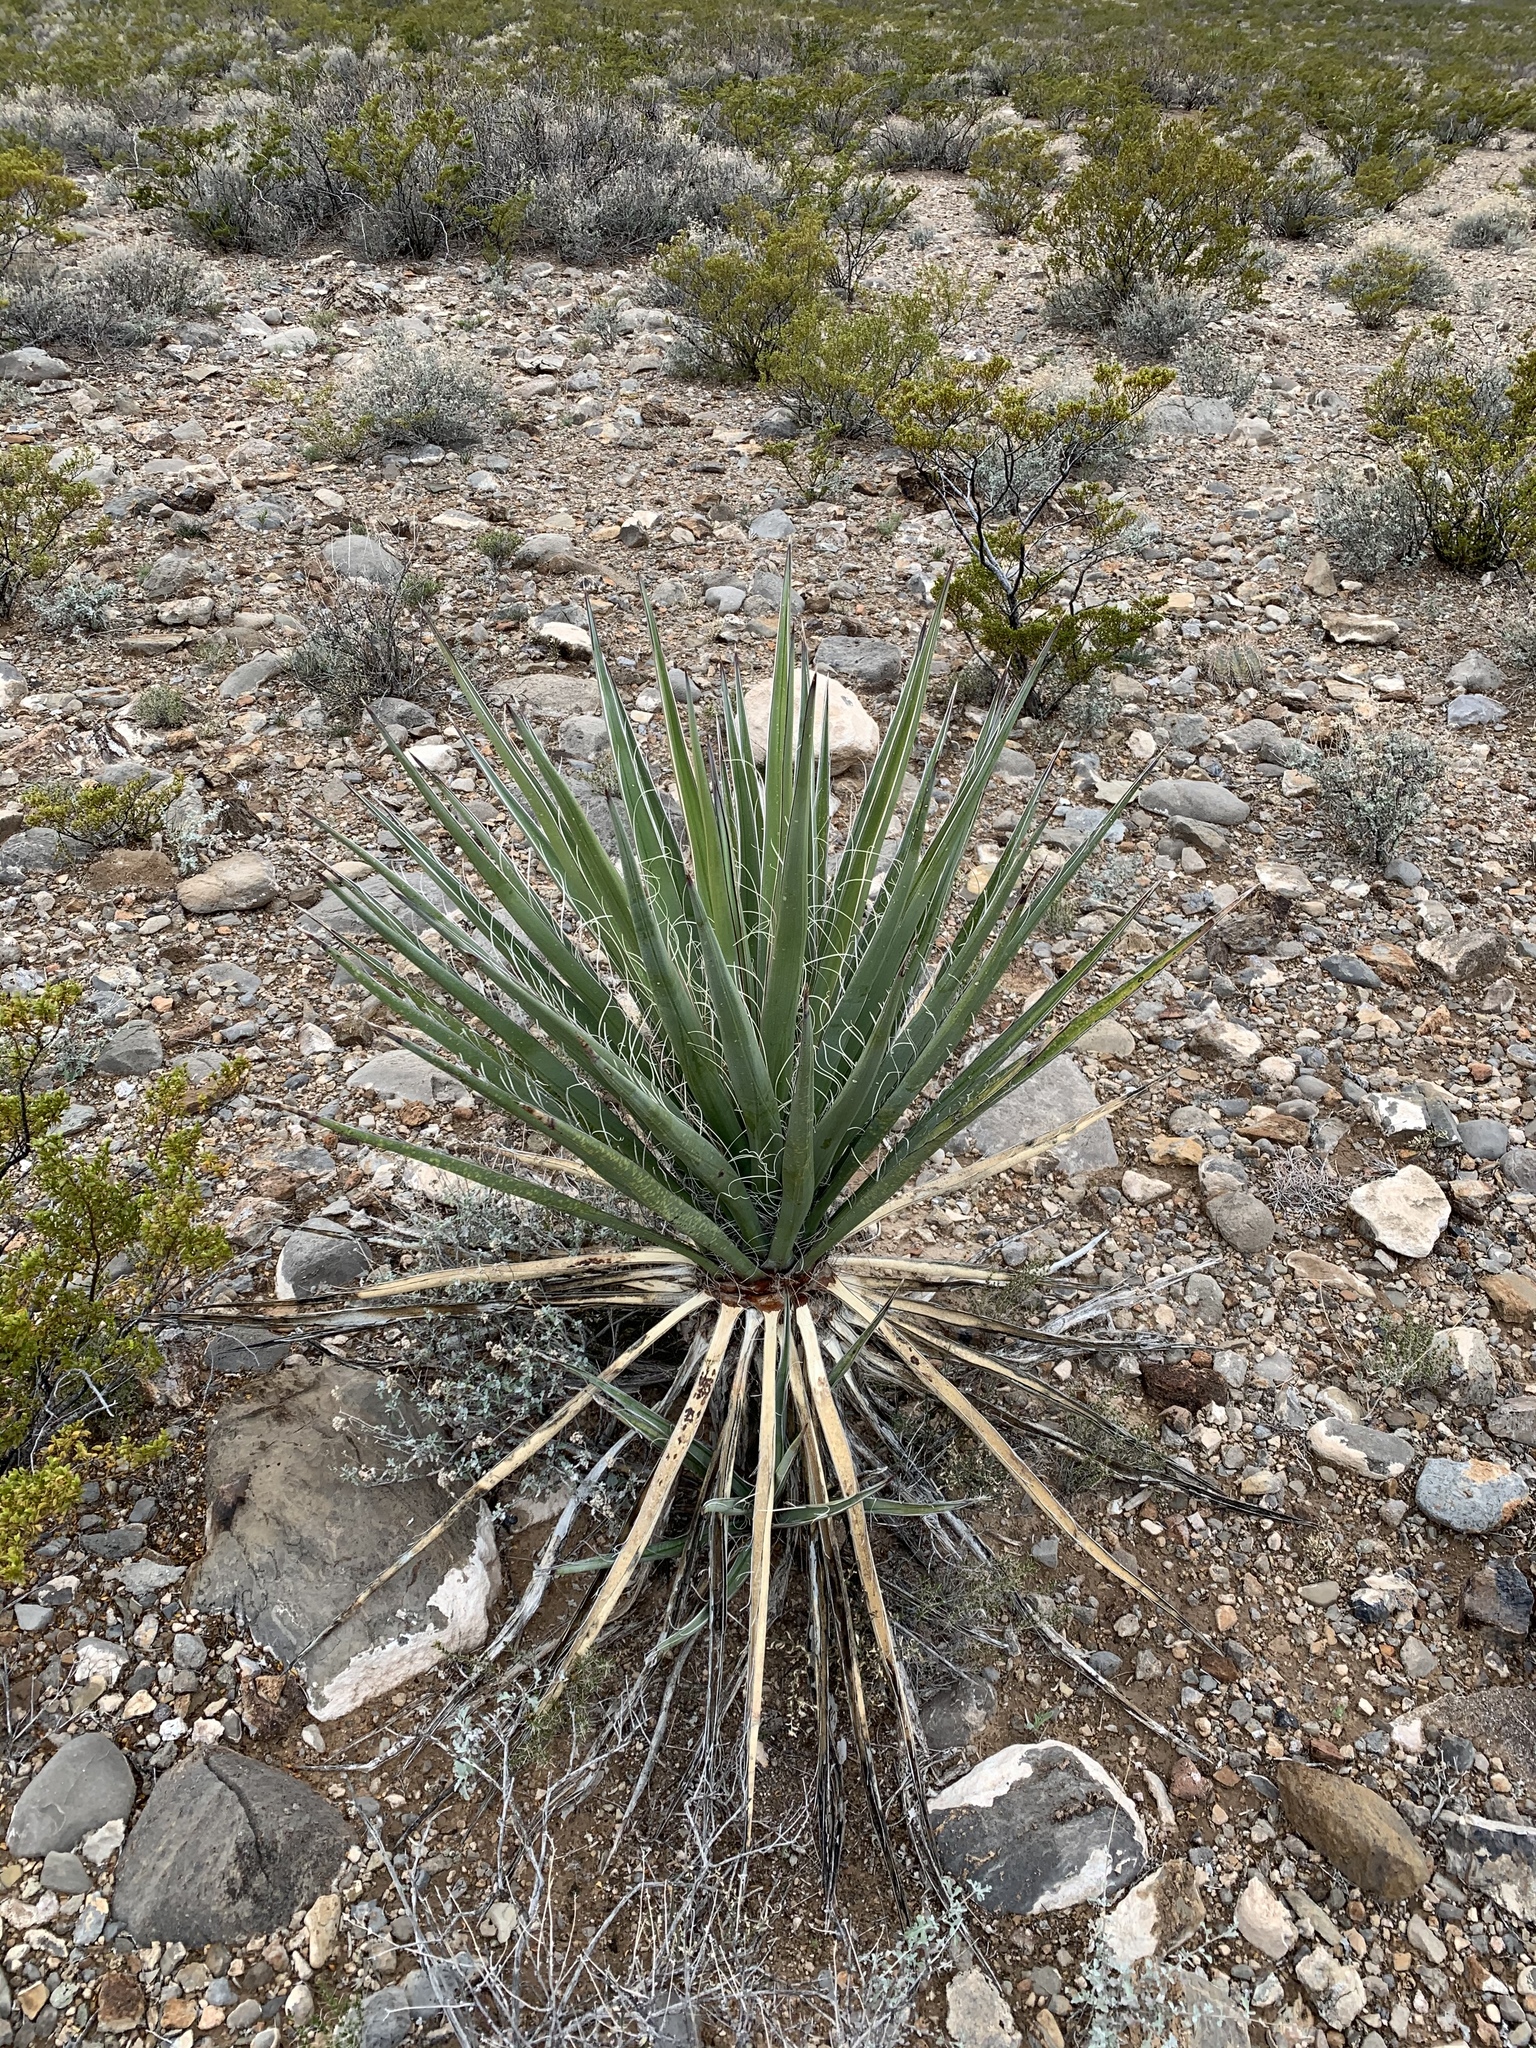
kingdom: Plantae
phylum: Tracheophyta
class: Liliopsida
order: Asparagales
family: Asparagaceae
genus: Yucca
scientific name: Yucca treculiana
